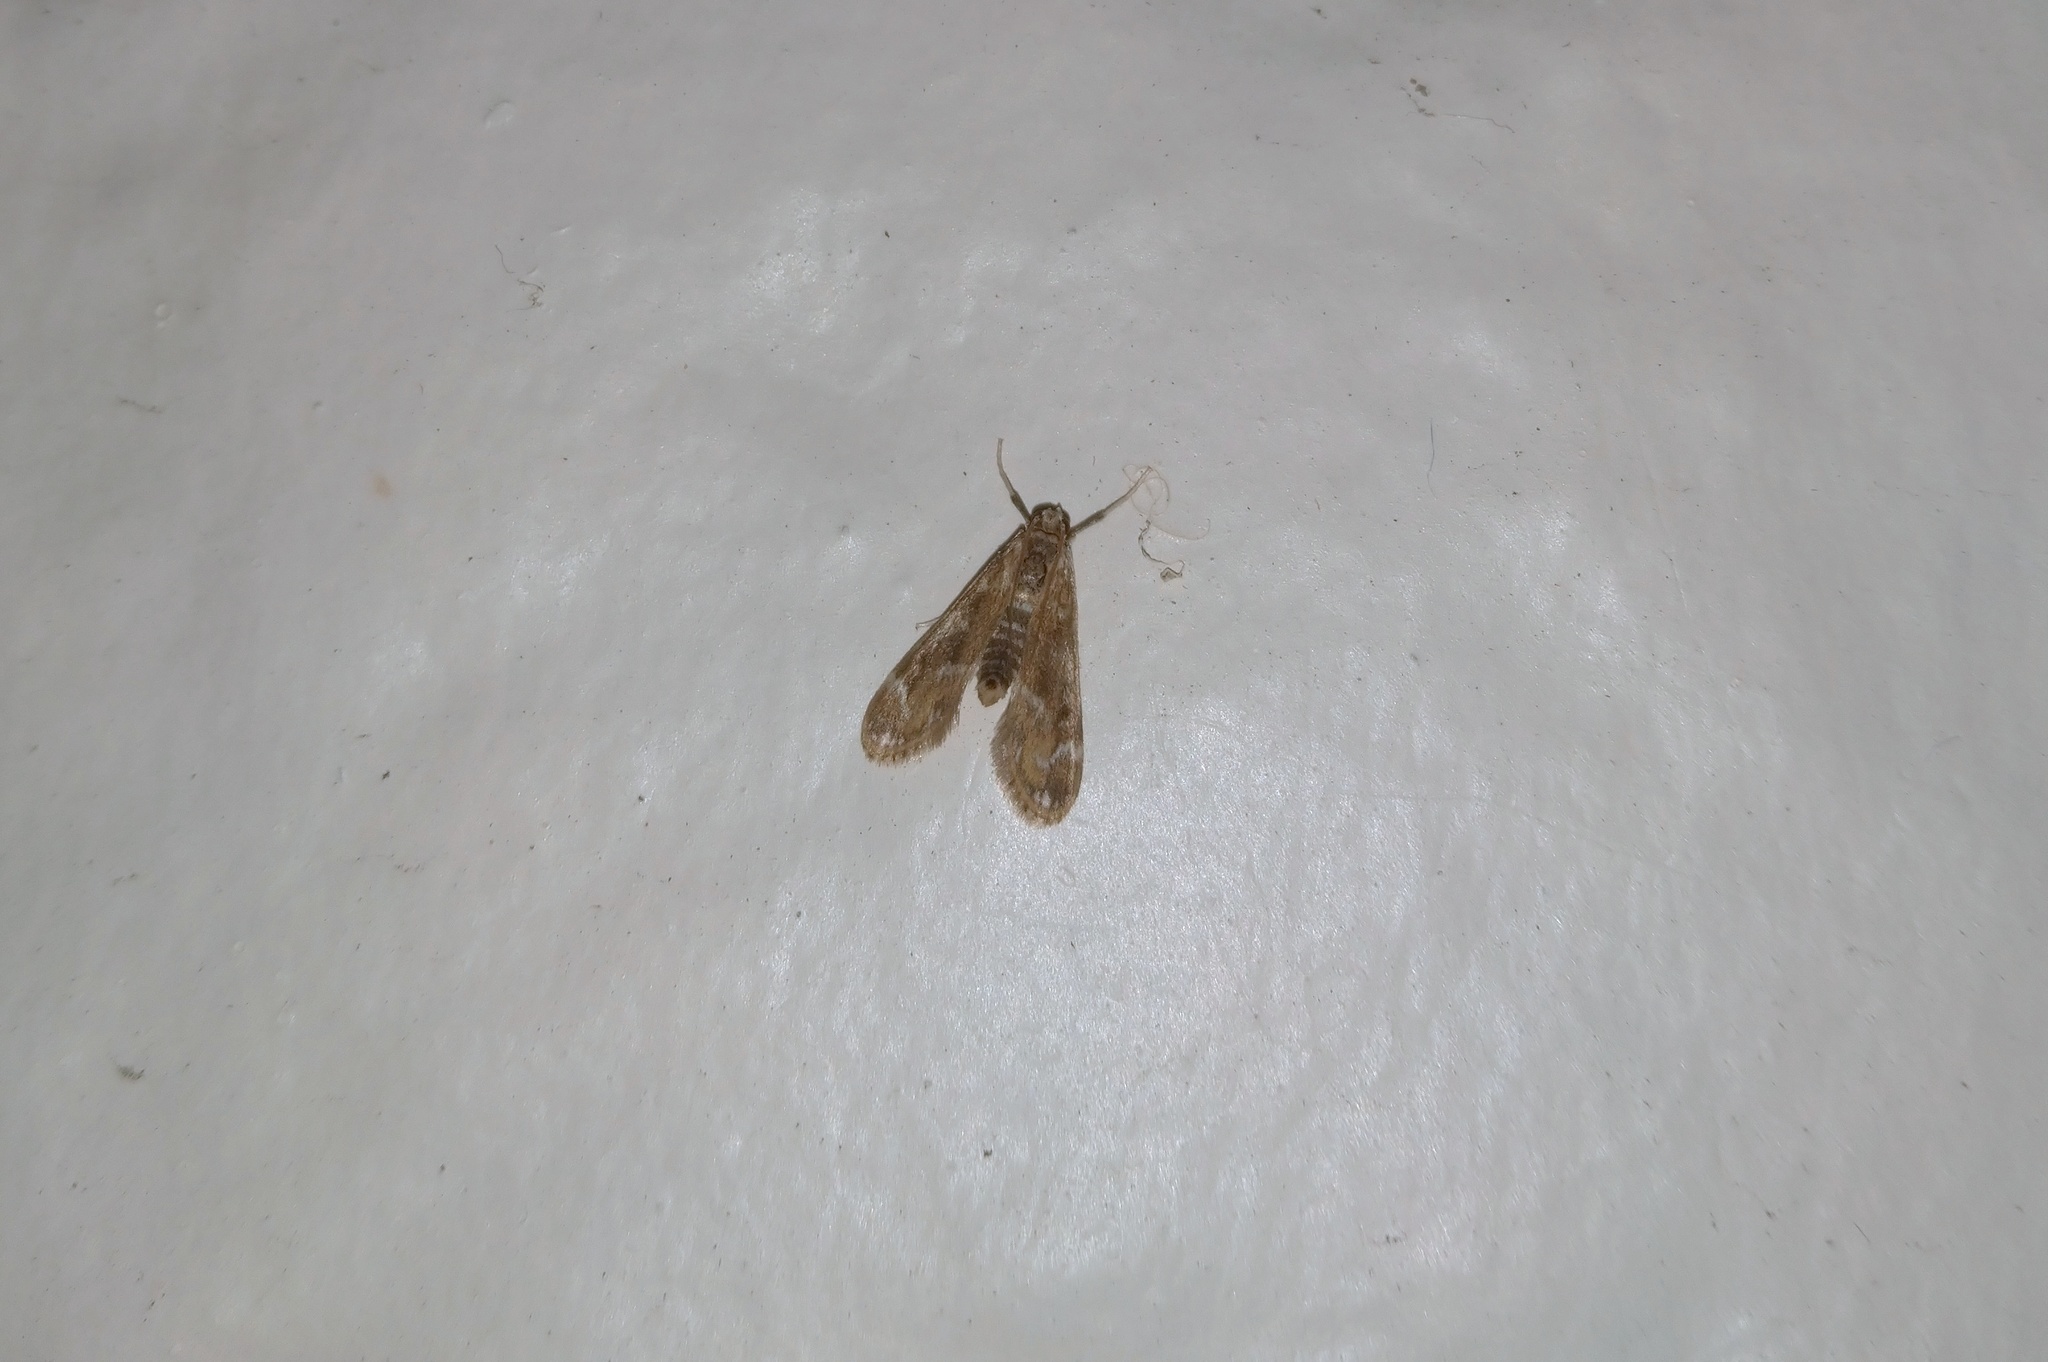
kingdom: Animalia
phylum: Arthropoda
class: Insecta
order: Lepidoptera
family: Crambidae
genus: Hygraula
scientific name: Hygraula nitens
